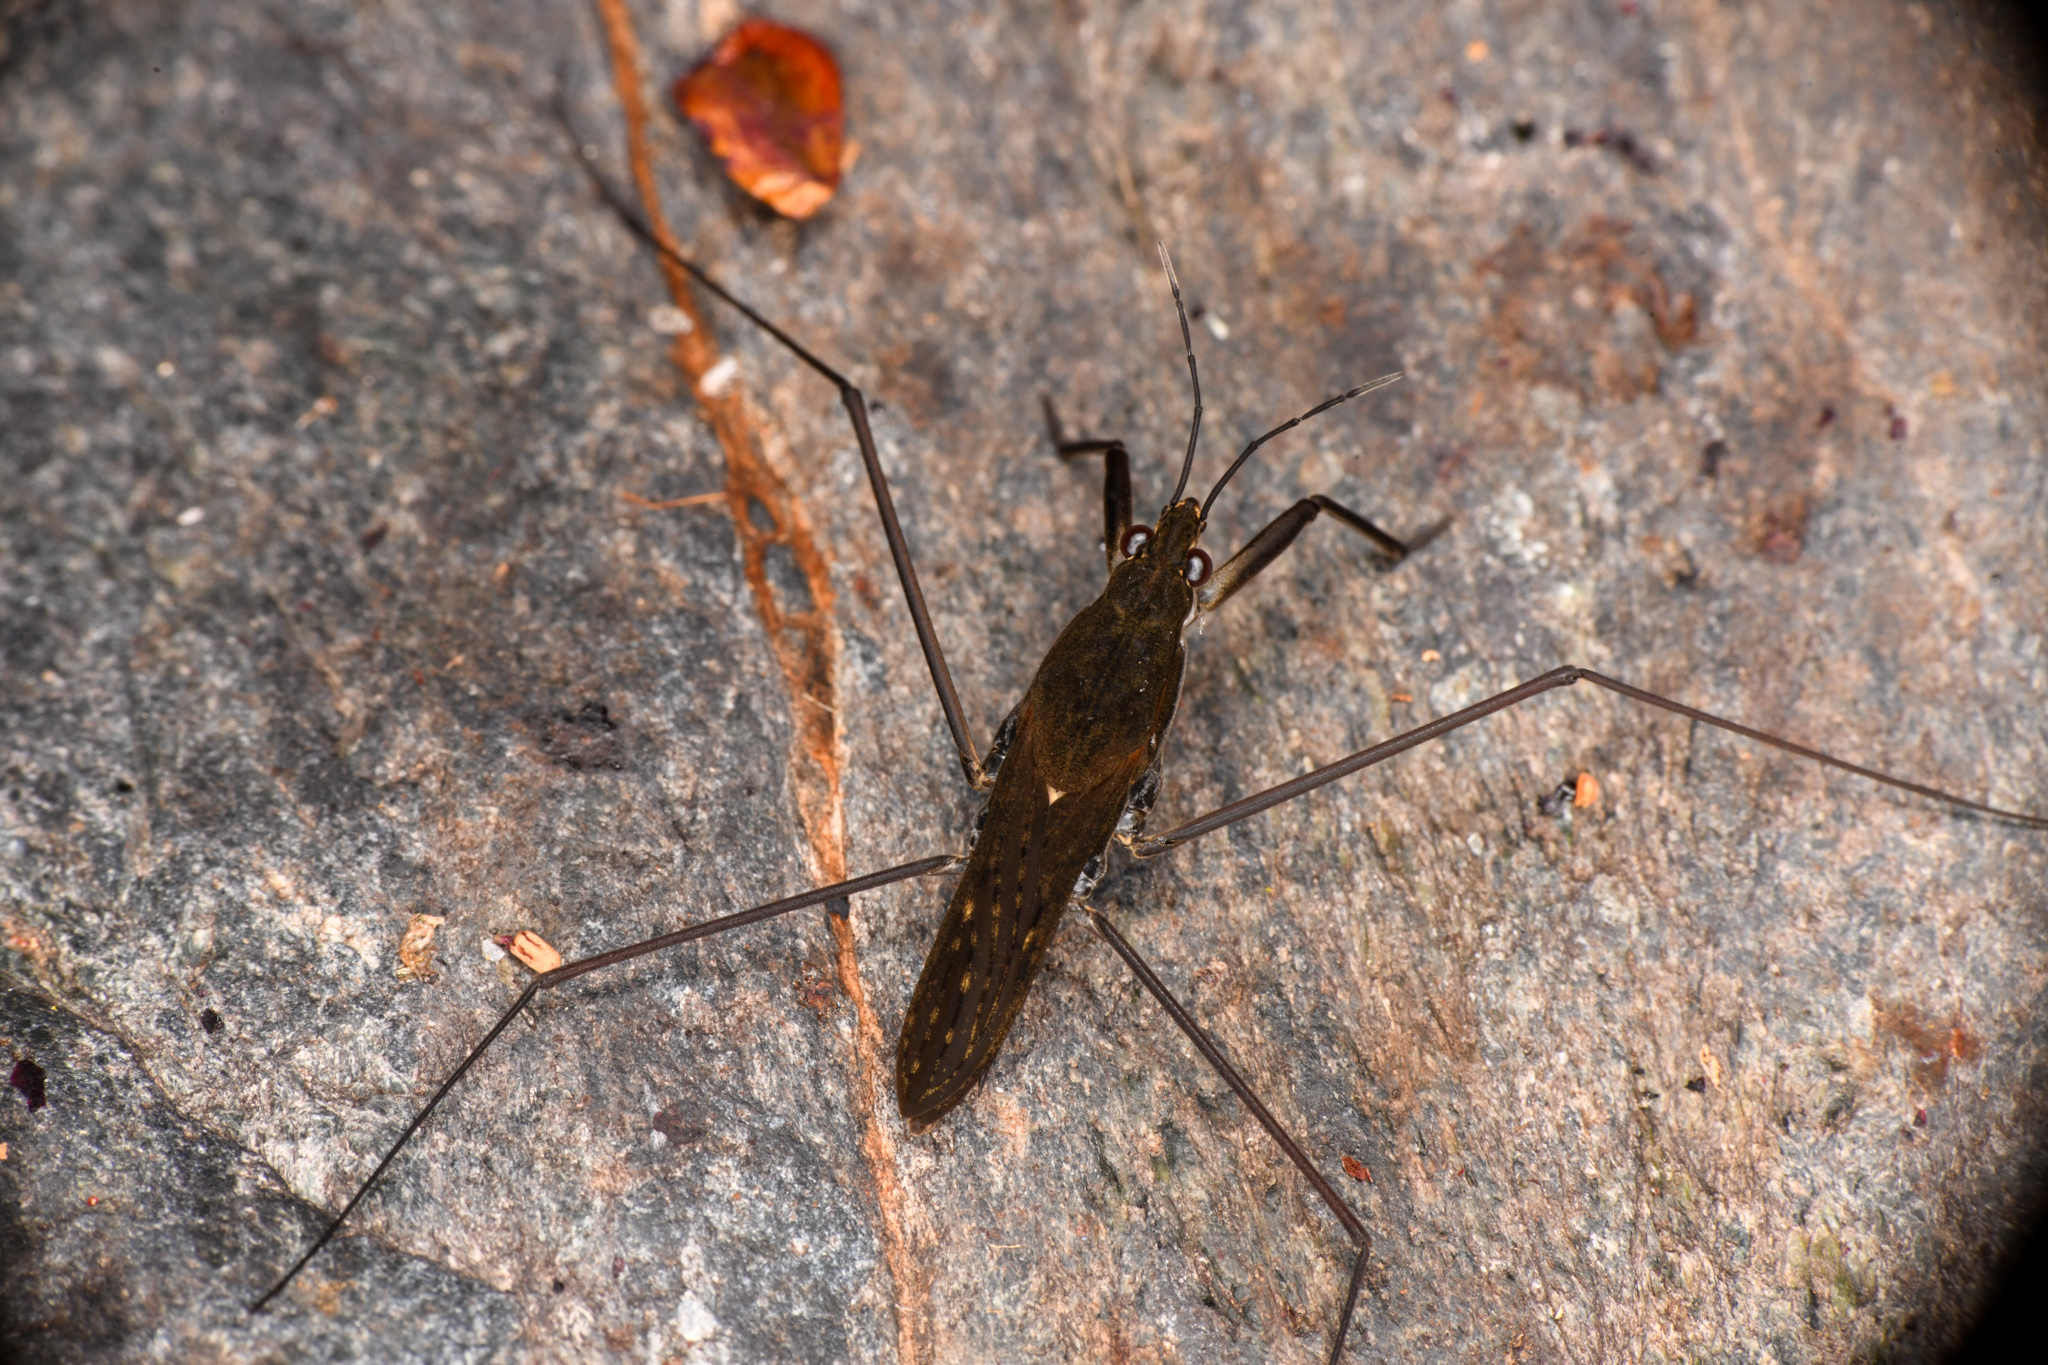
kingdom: Animalia
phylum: Arthropoda
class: Insecta
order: Hemiptera
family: Gerridae
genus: Aquarius
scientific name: Aquarius remigis
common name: Common water strider
